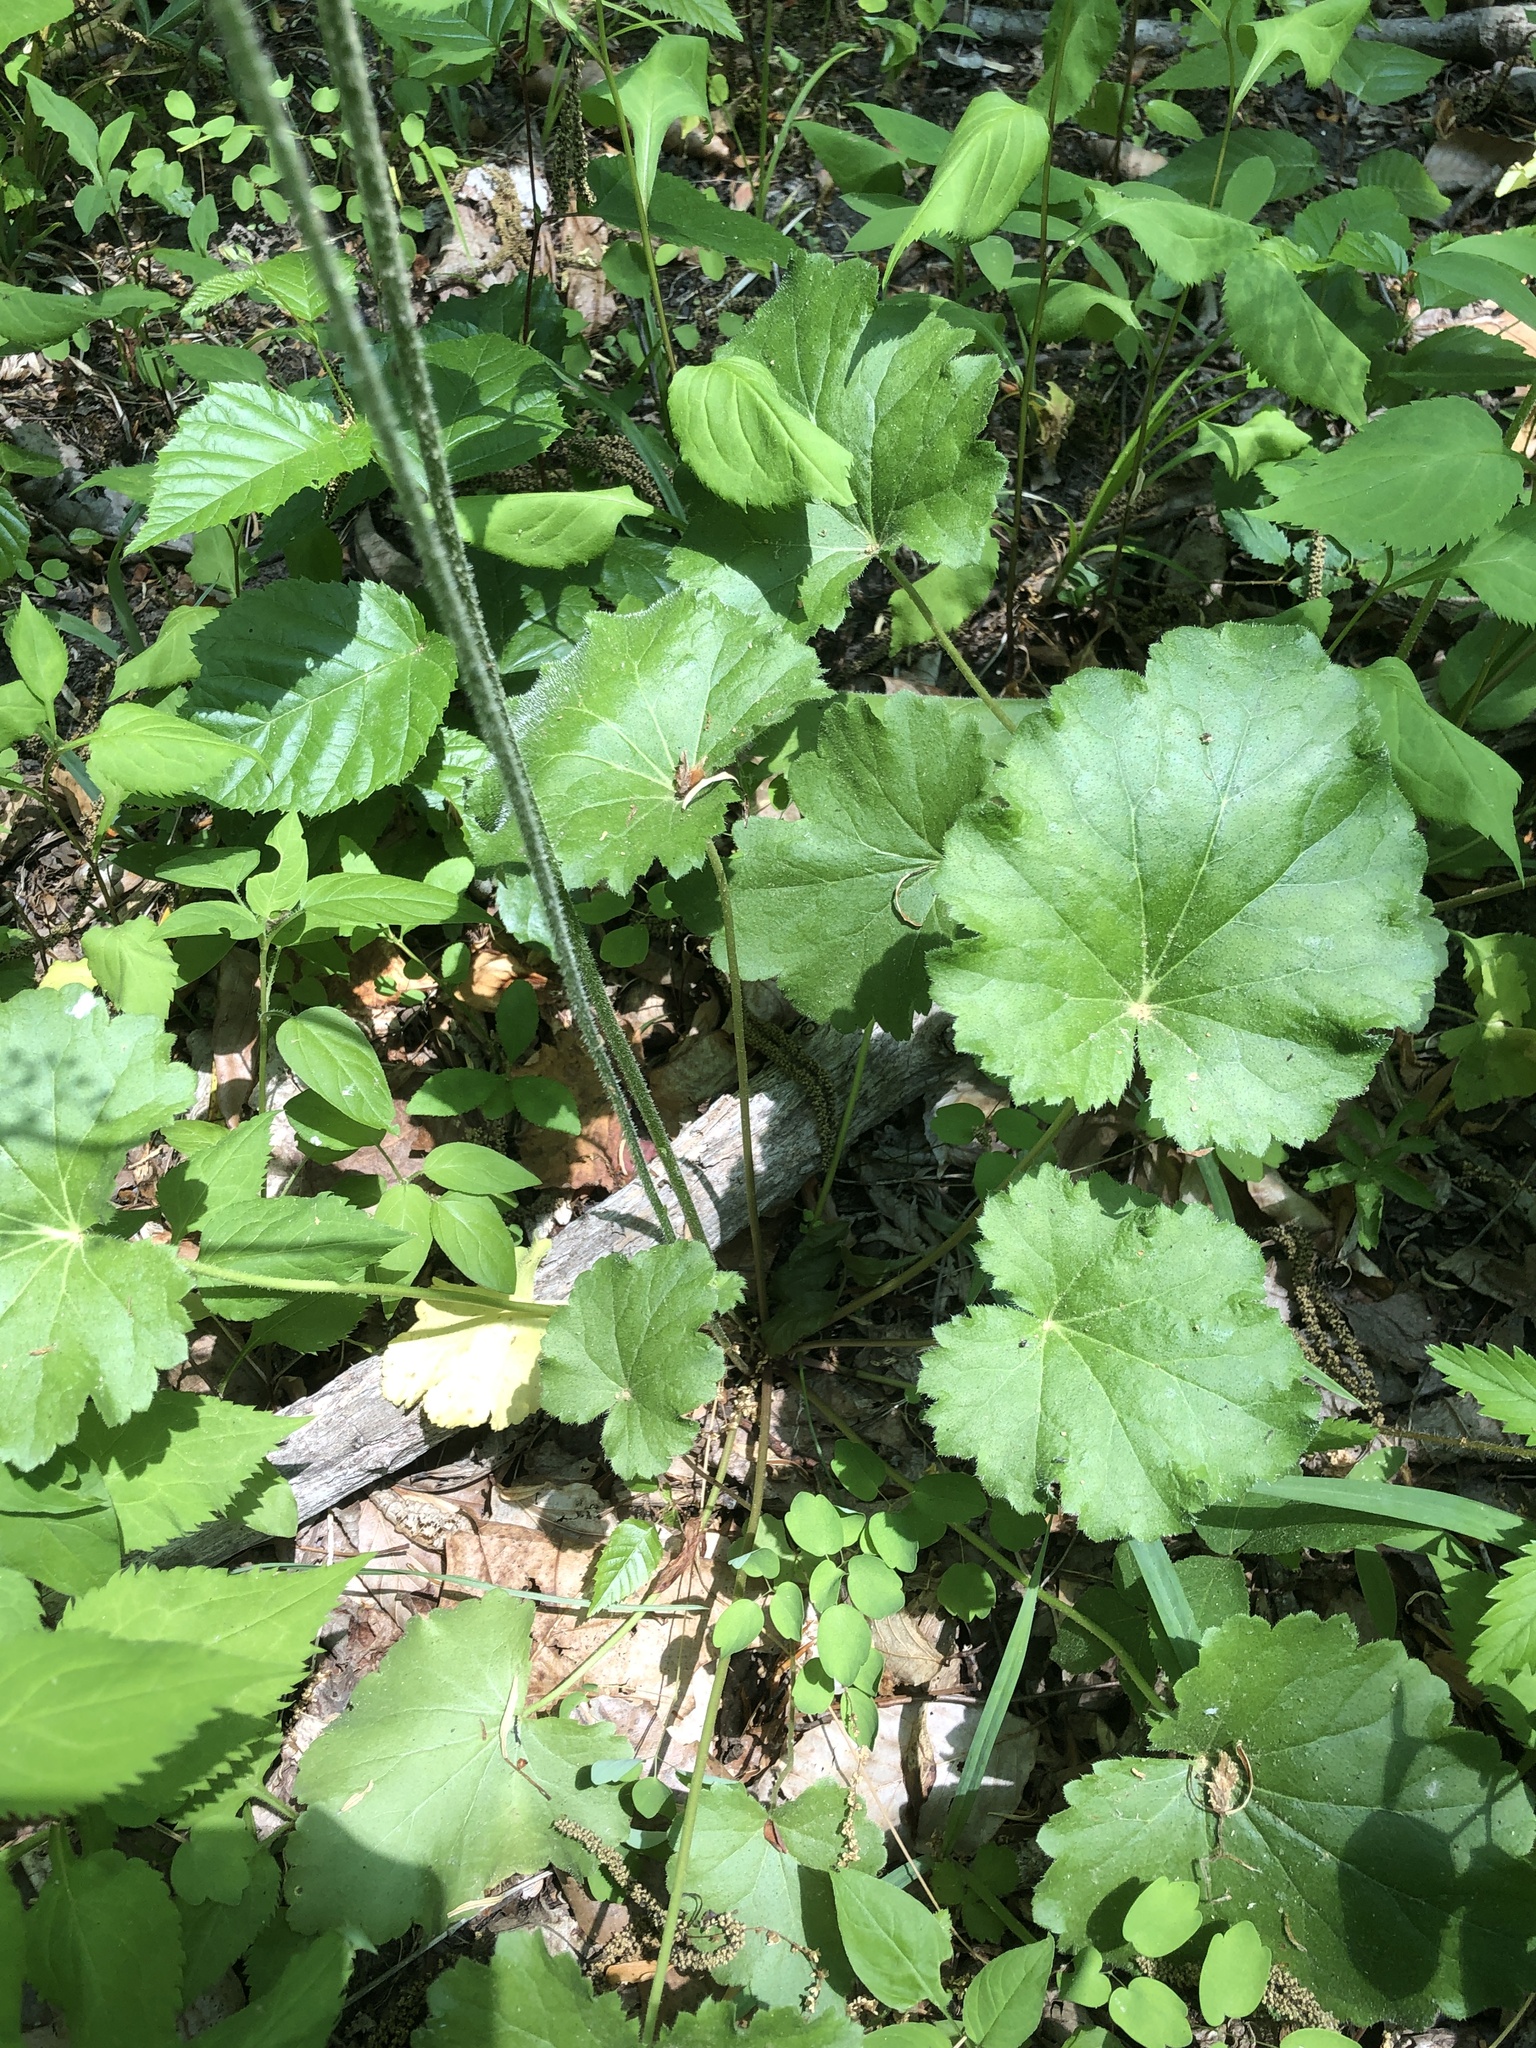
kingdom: Plantae
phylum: Tracheophyta
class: Magnoliopsida
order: Saxifragales
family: Saxifragaceae
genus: Heuchera
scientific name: Heuchera americana
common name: Alumroot
